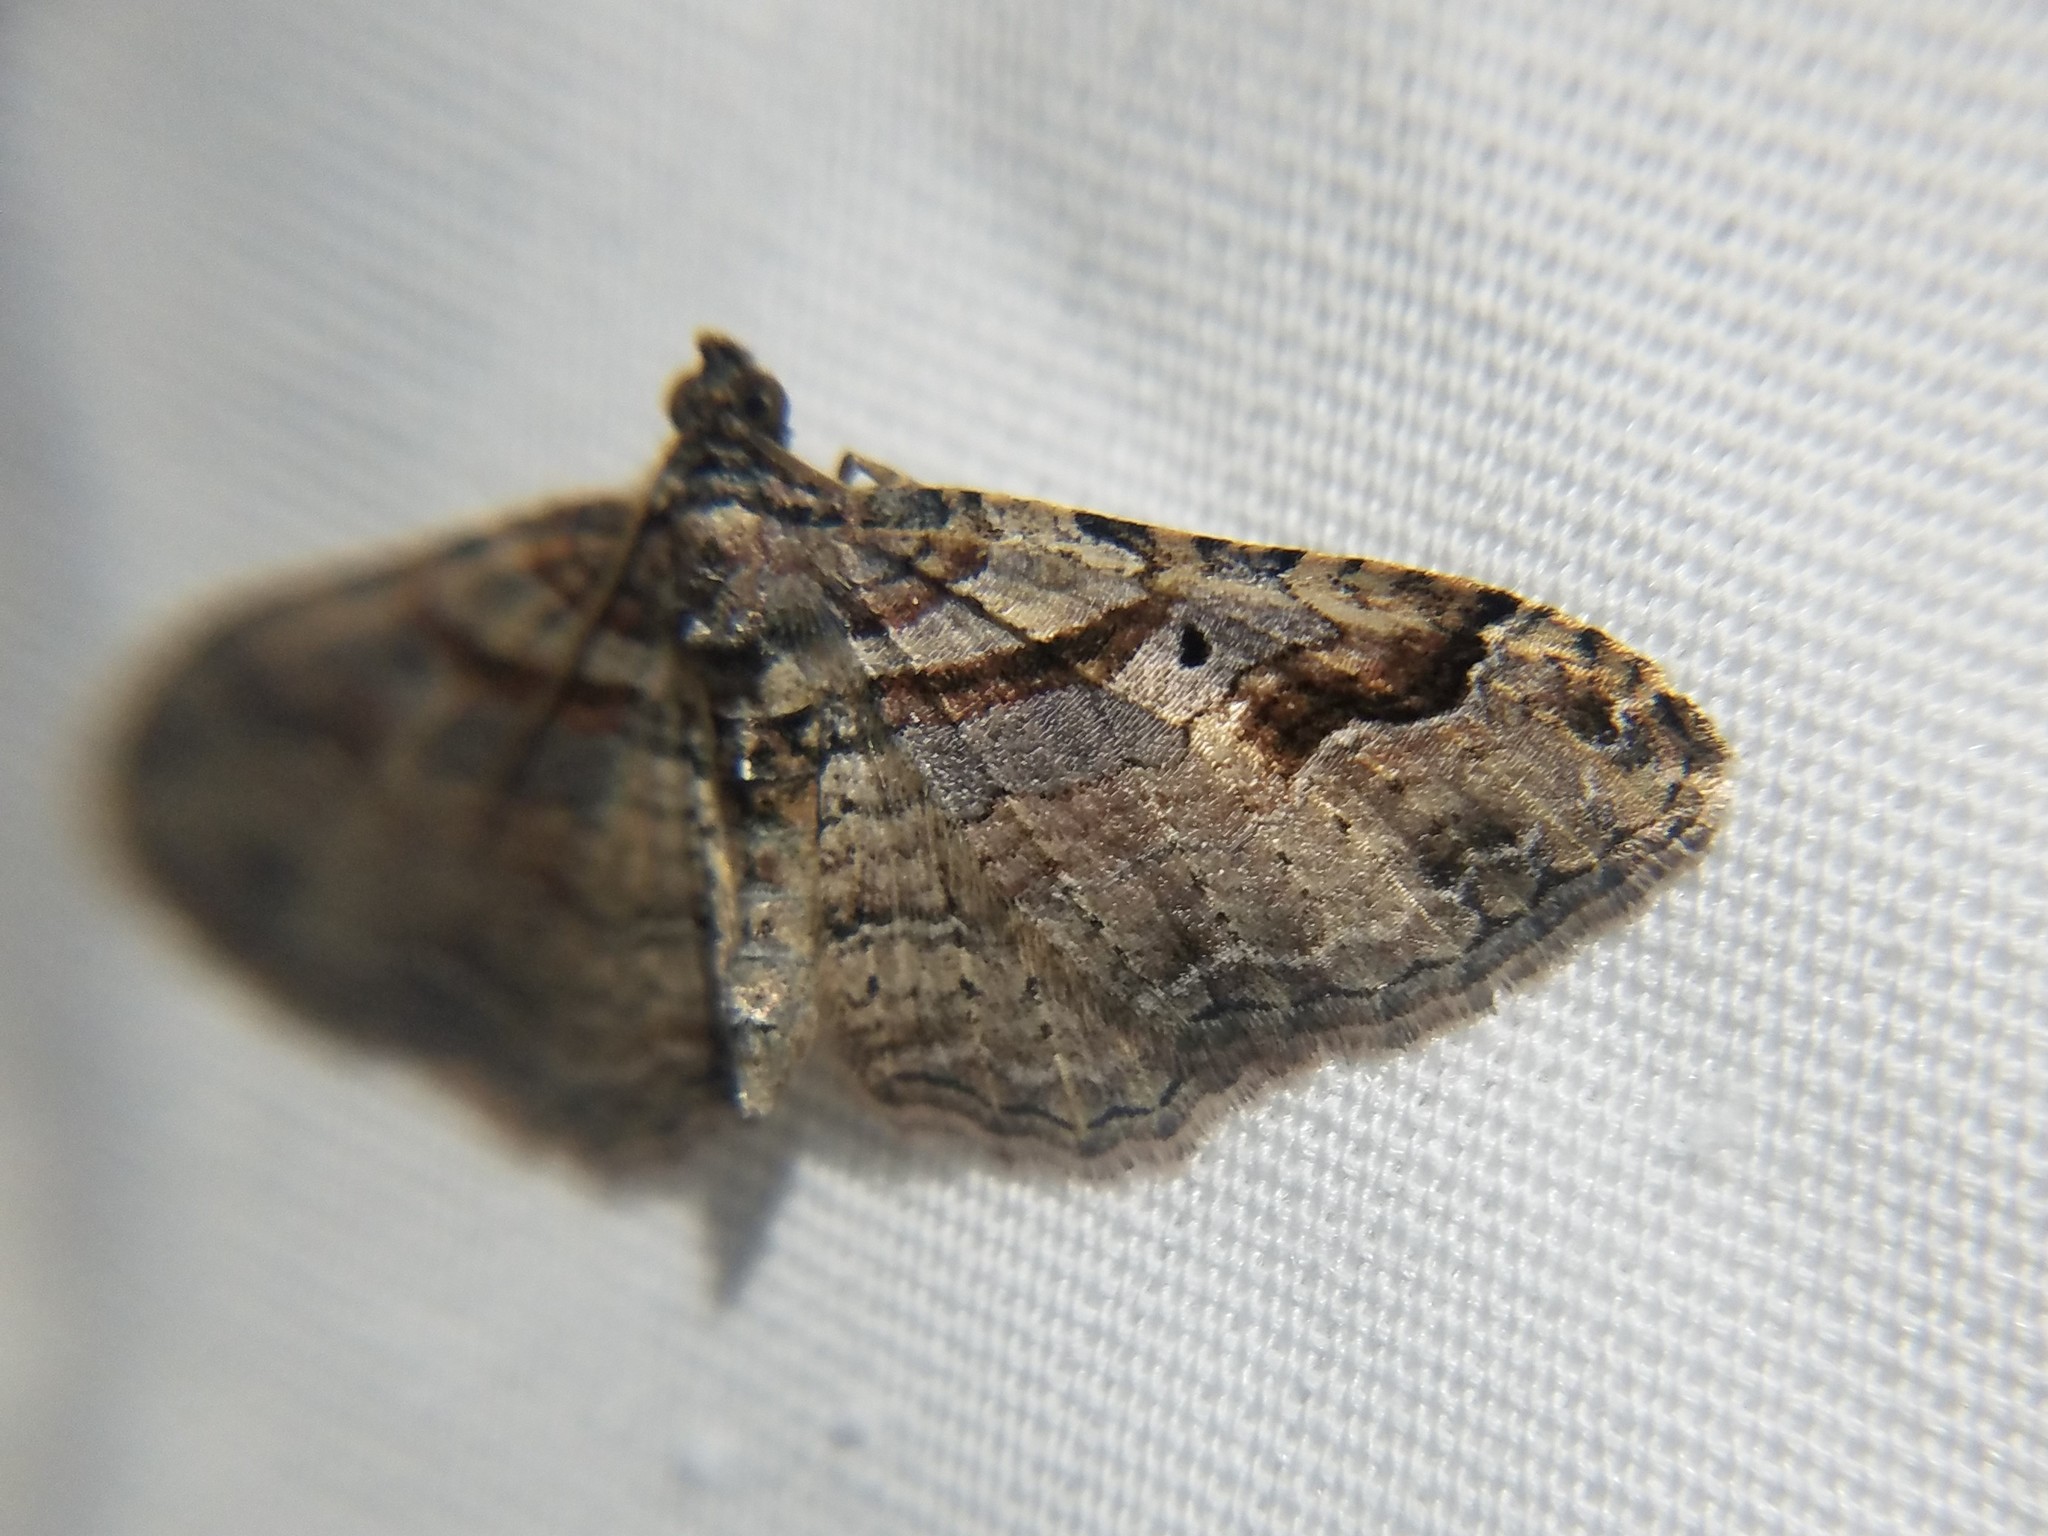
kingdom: Animalia
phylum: Arthropoda
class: Insecta
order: Lepidoptera
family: Geometridae
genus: Costaconvexa
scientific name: Costaconvexa centrostrigaria
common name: Bent-line carpet
